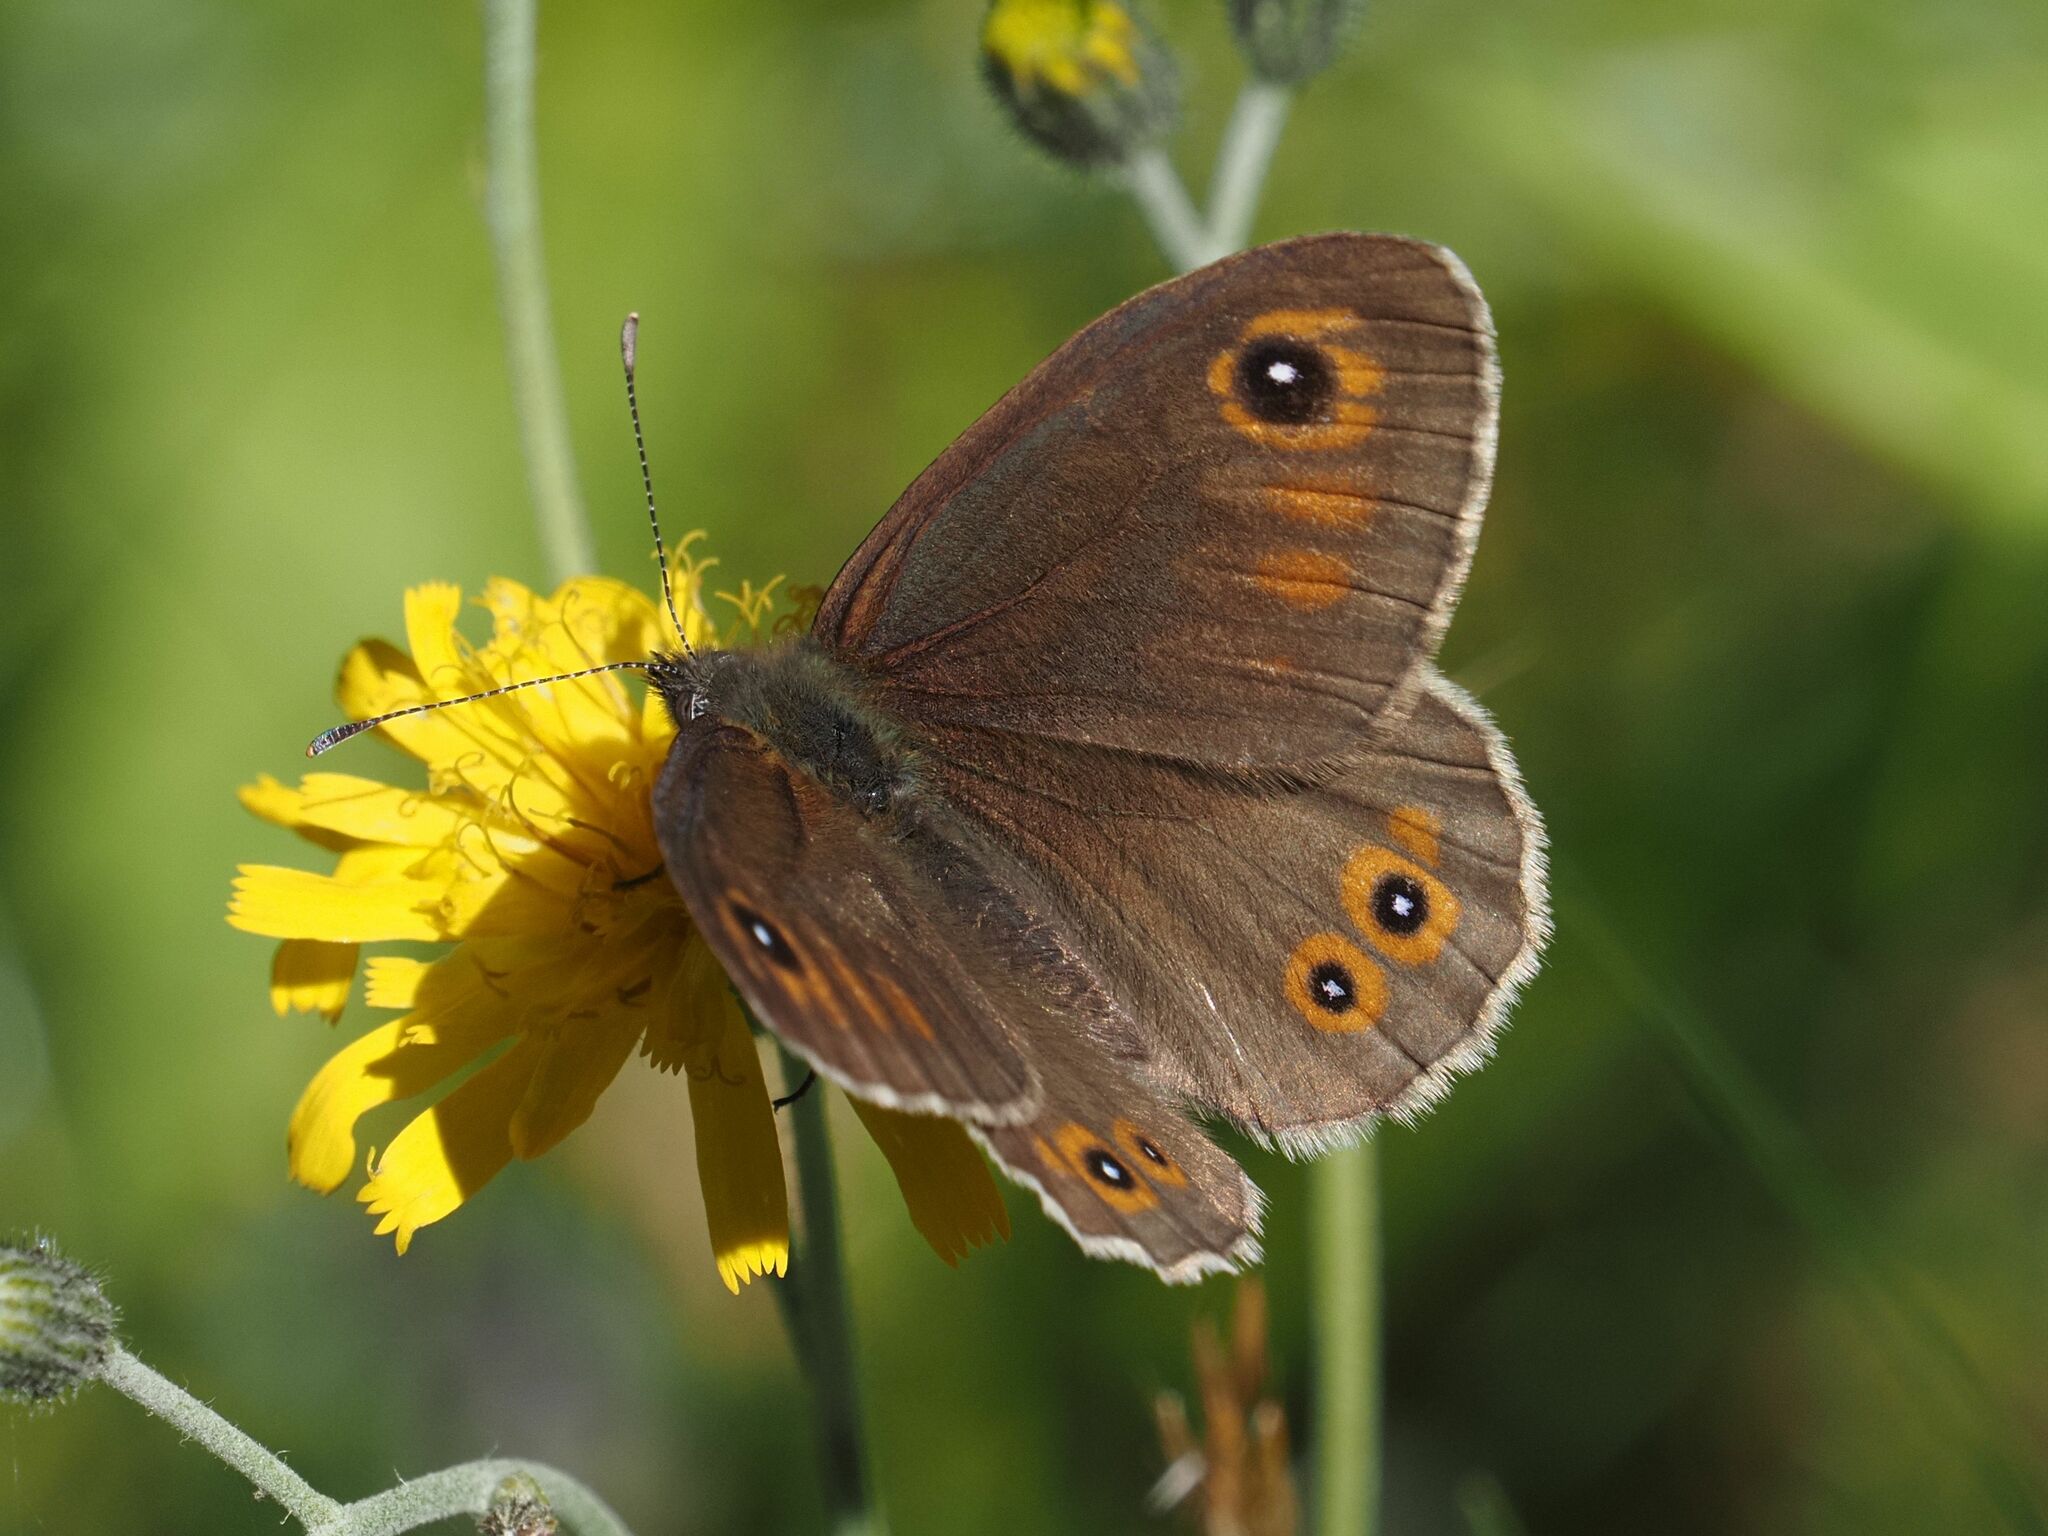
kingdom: Animalia
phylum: Arthropoda
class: Insecta
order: Lepidoptera
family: Nymphalidae
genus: Pararge
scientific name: Pararge Lasiommata maera
